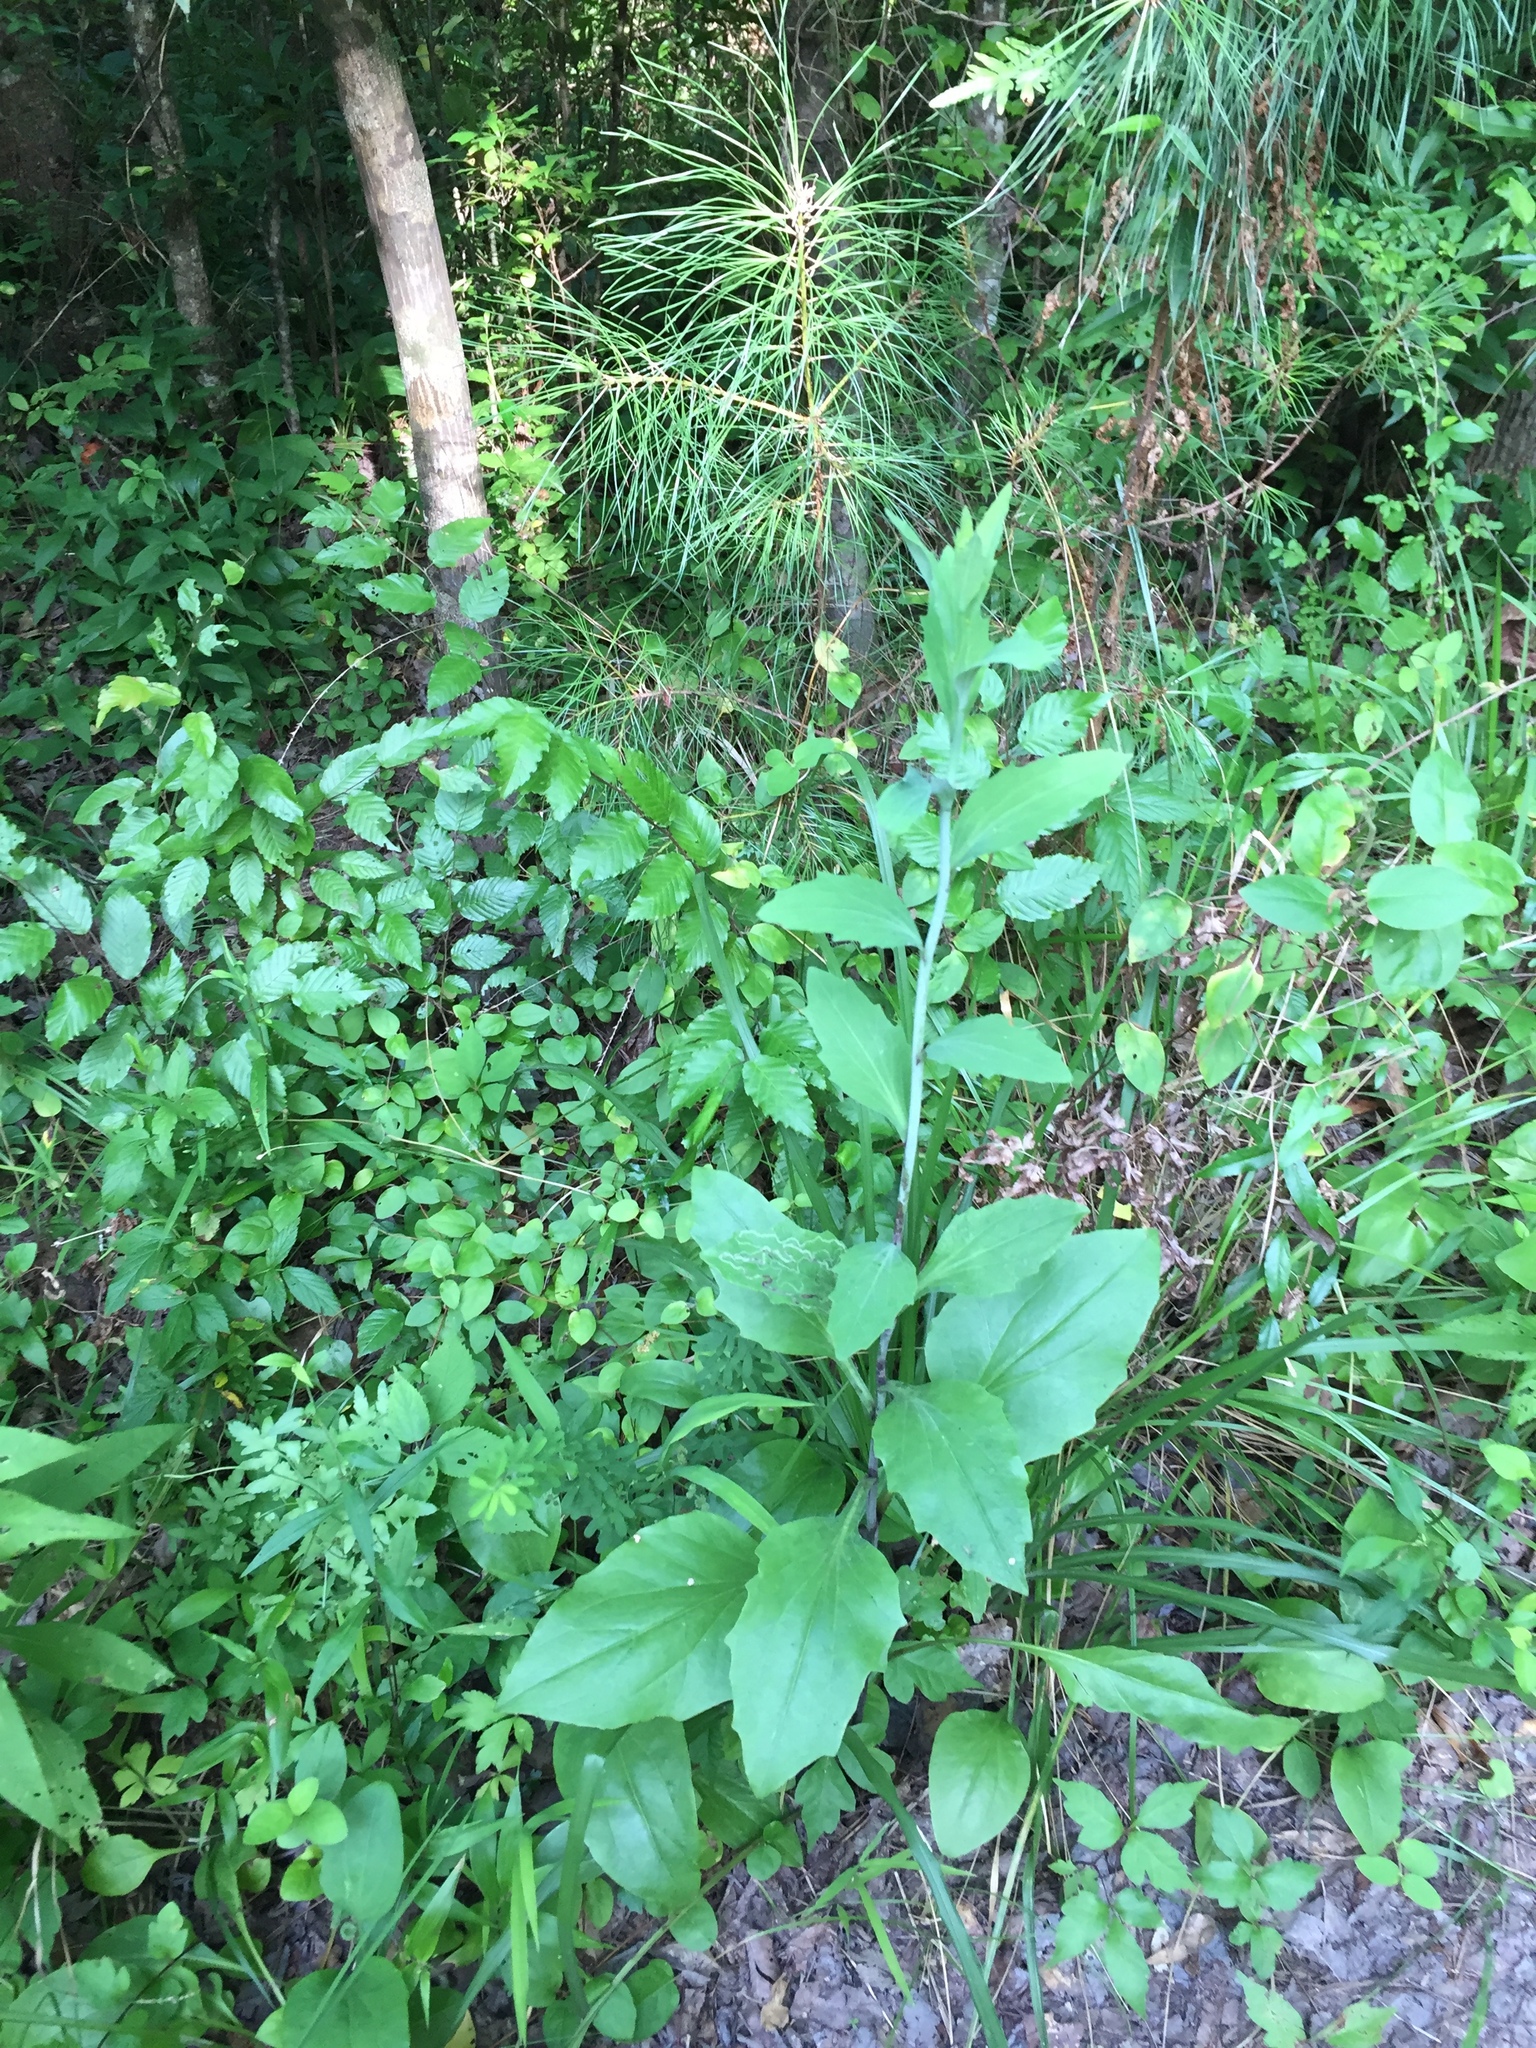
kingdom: Plantae
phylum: Tracheophyta
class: Magnoliopsida
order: Asterales
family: Asteraceae
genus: Arnoglossum
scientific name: Arnoglossum ovatum
